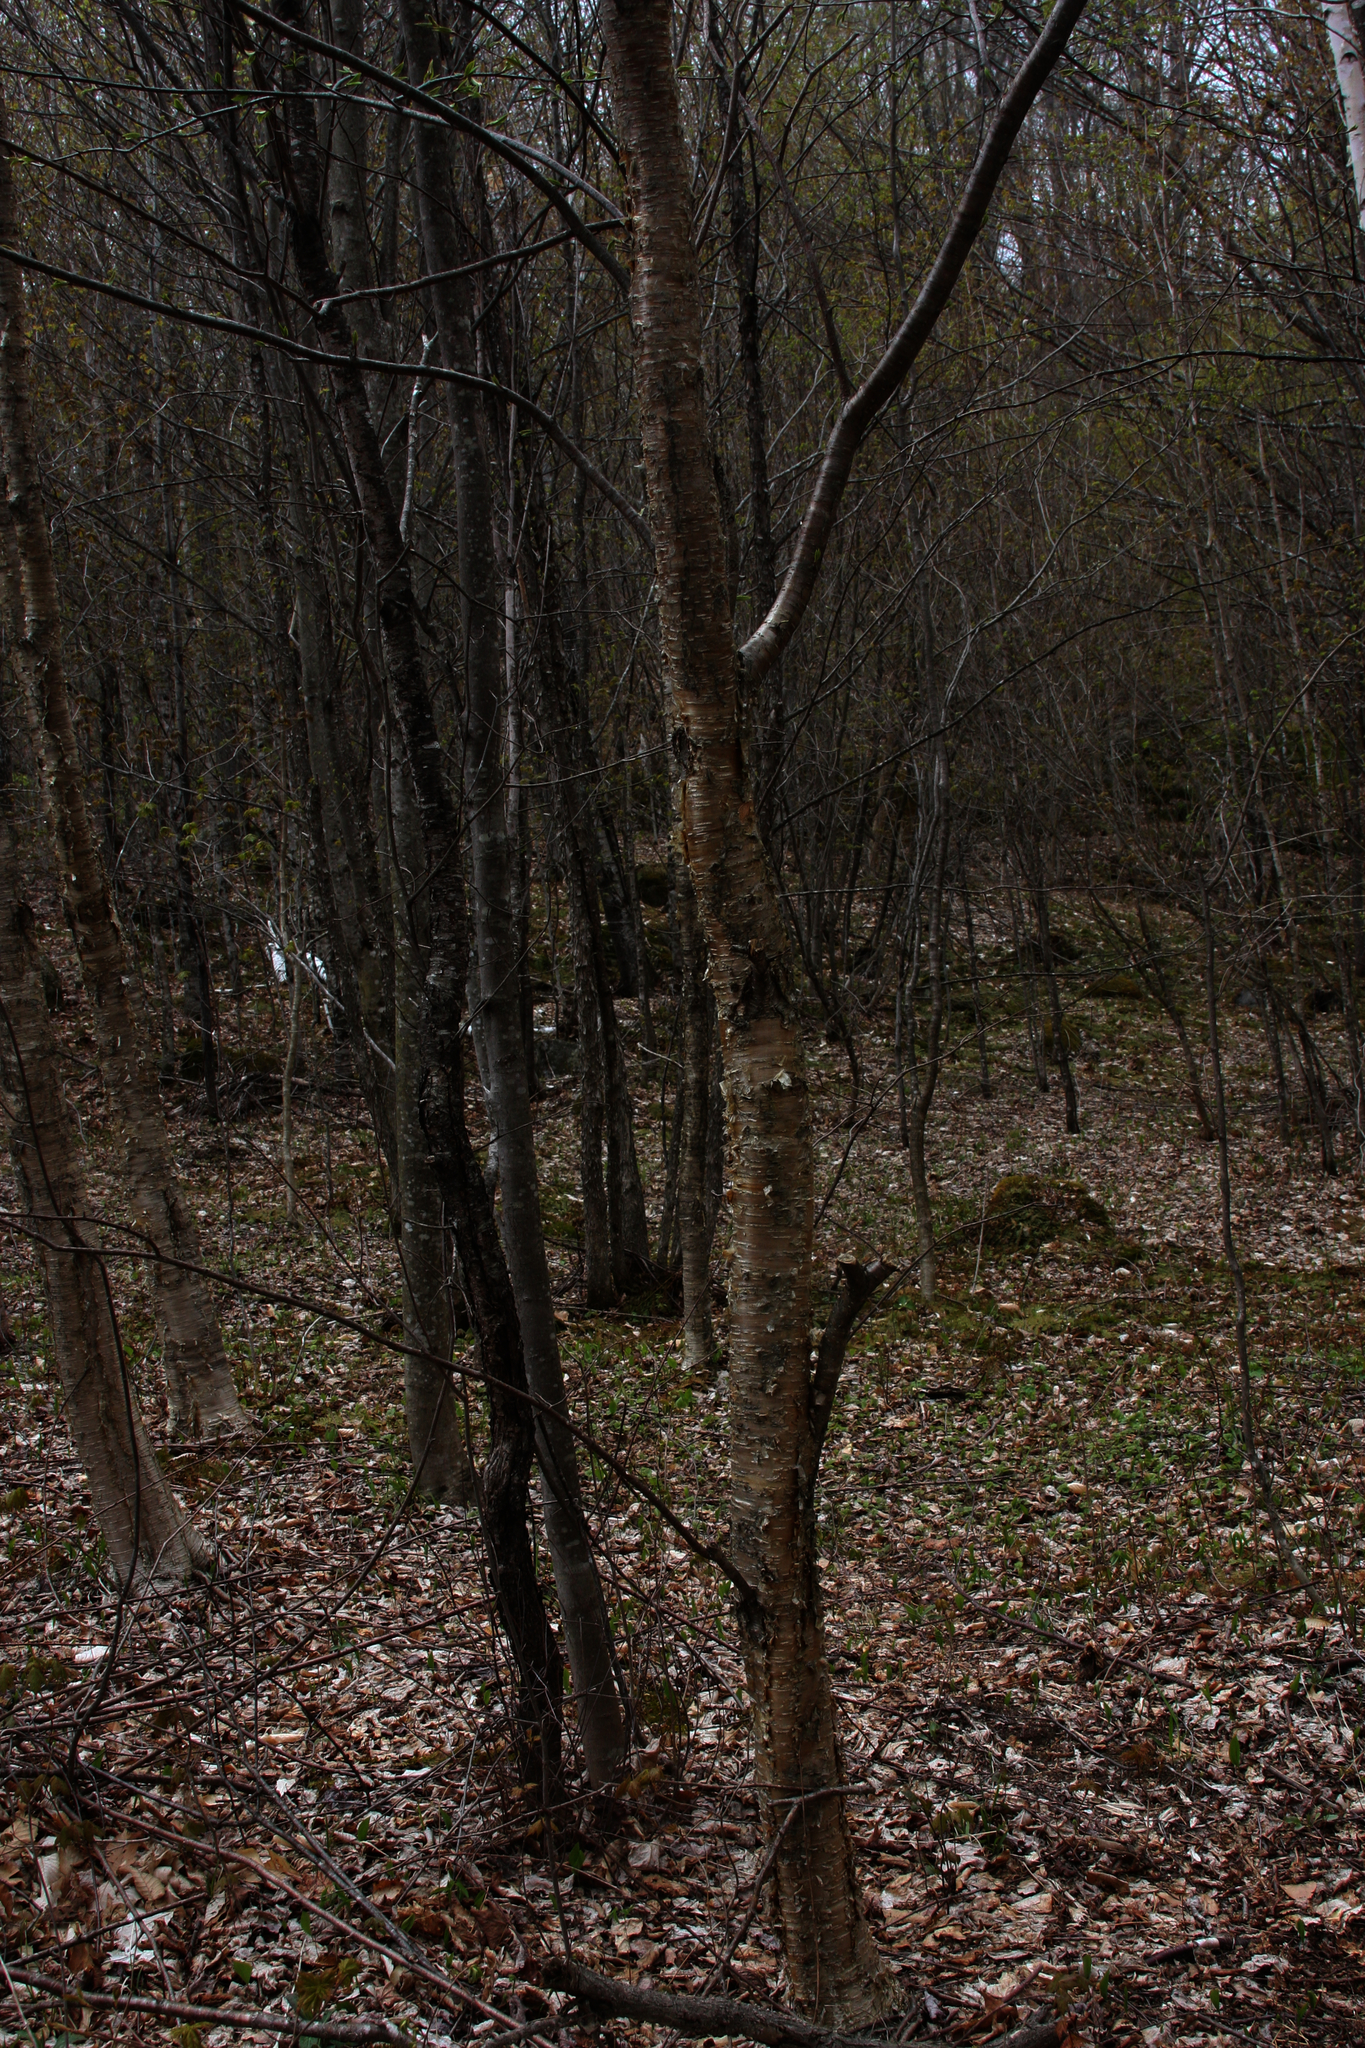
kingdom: Plantae
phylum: Tracheophyta
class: Magnoliopsida
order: Fagales
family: Betulaceae
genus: Betula
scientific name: Betula alleghaniensis
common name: Yellow birch
